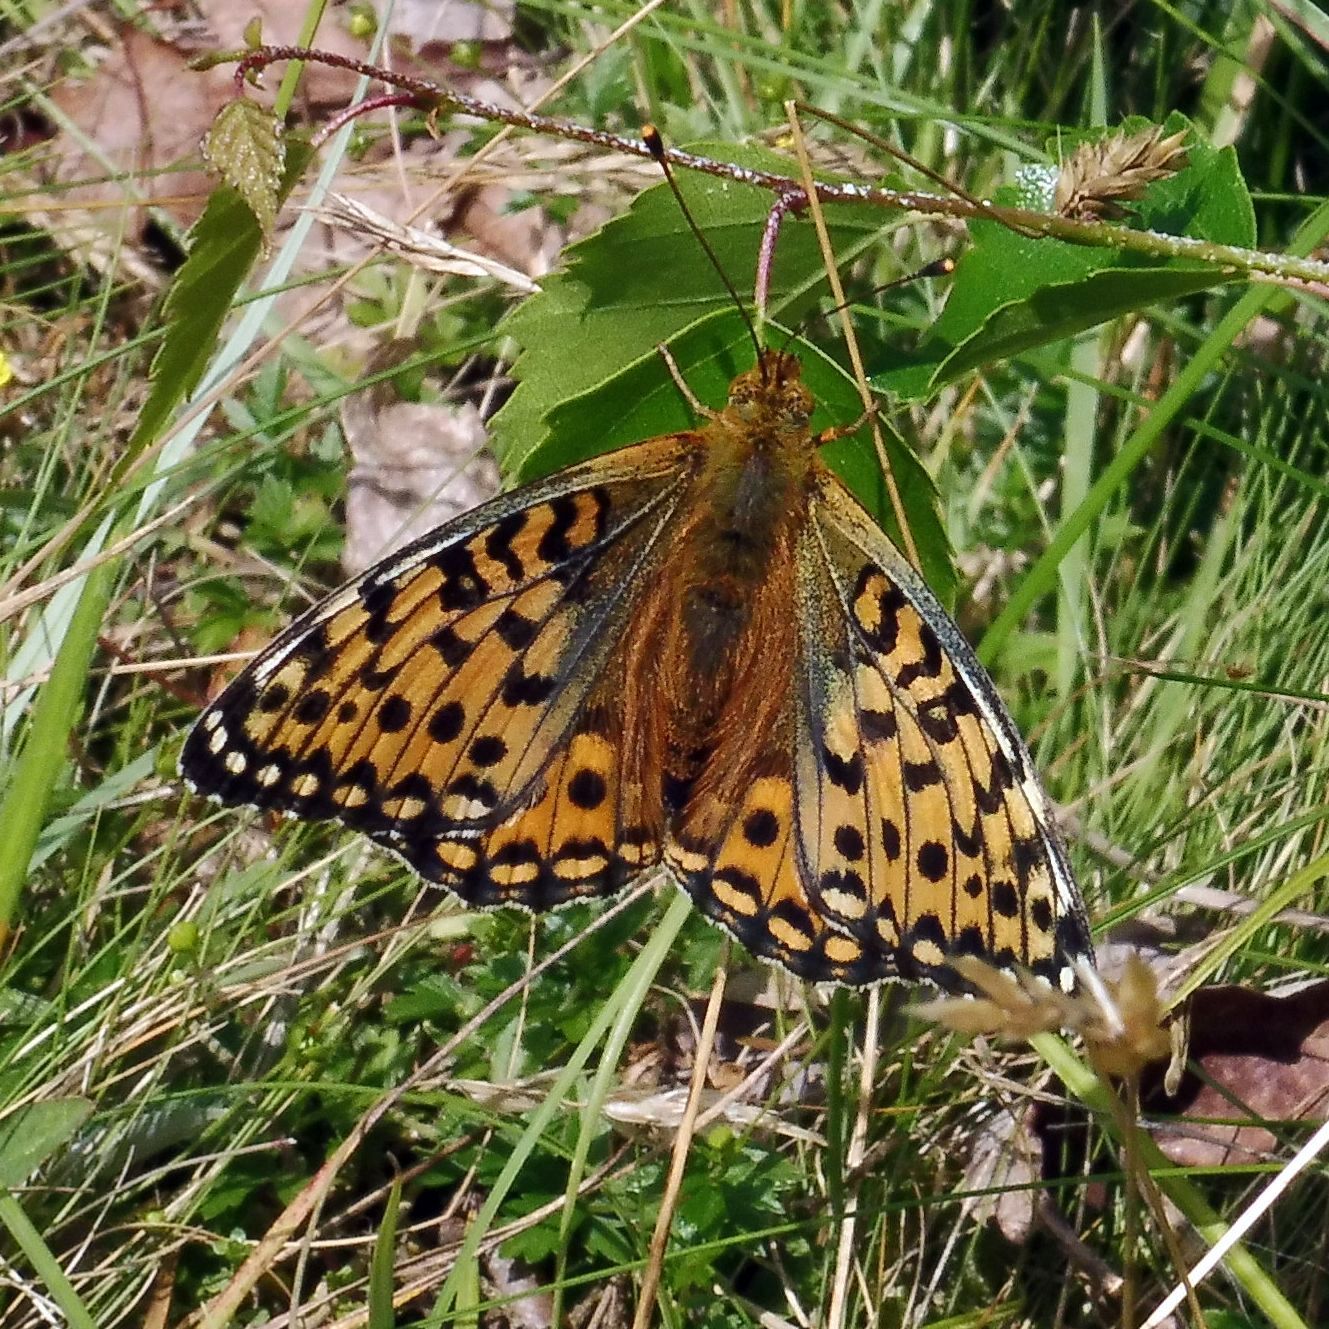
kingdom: Animalia
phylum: Arthropoda
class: Insecta
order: Lepidoptera
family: Nymphalidae
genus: Speyeria
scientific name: Speyeria aglaja
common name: Dark green fritillary
